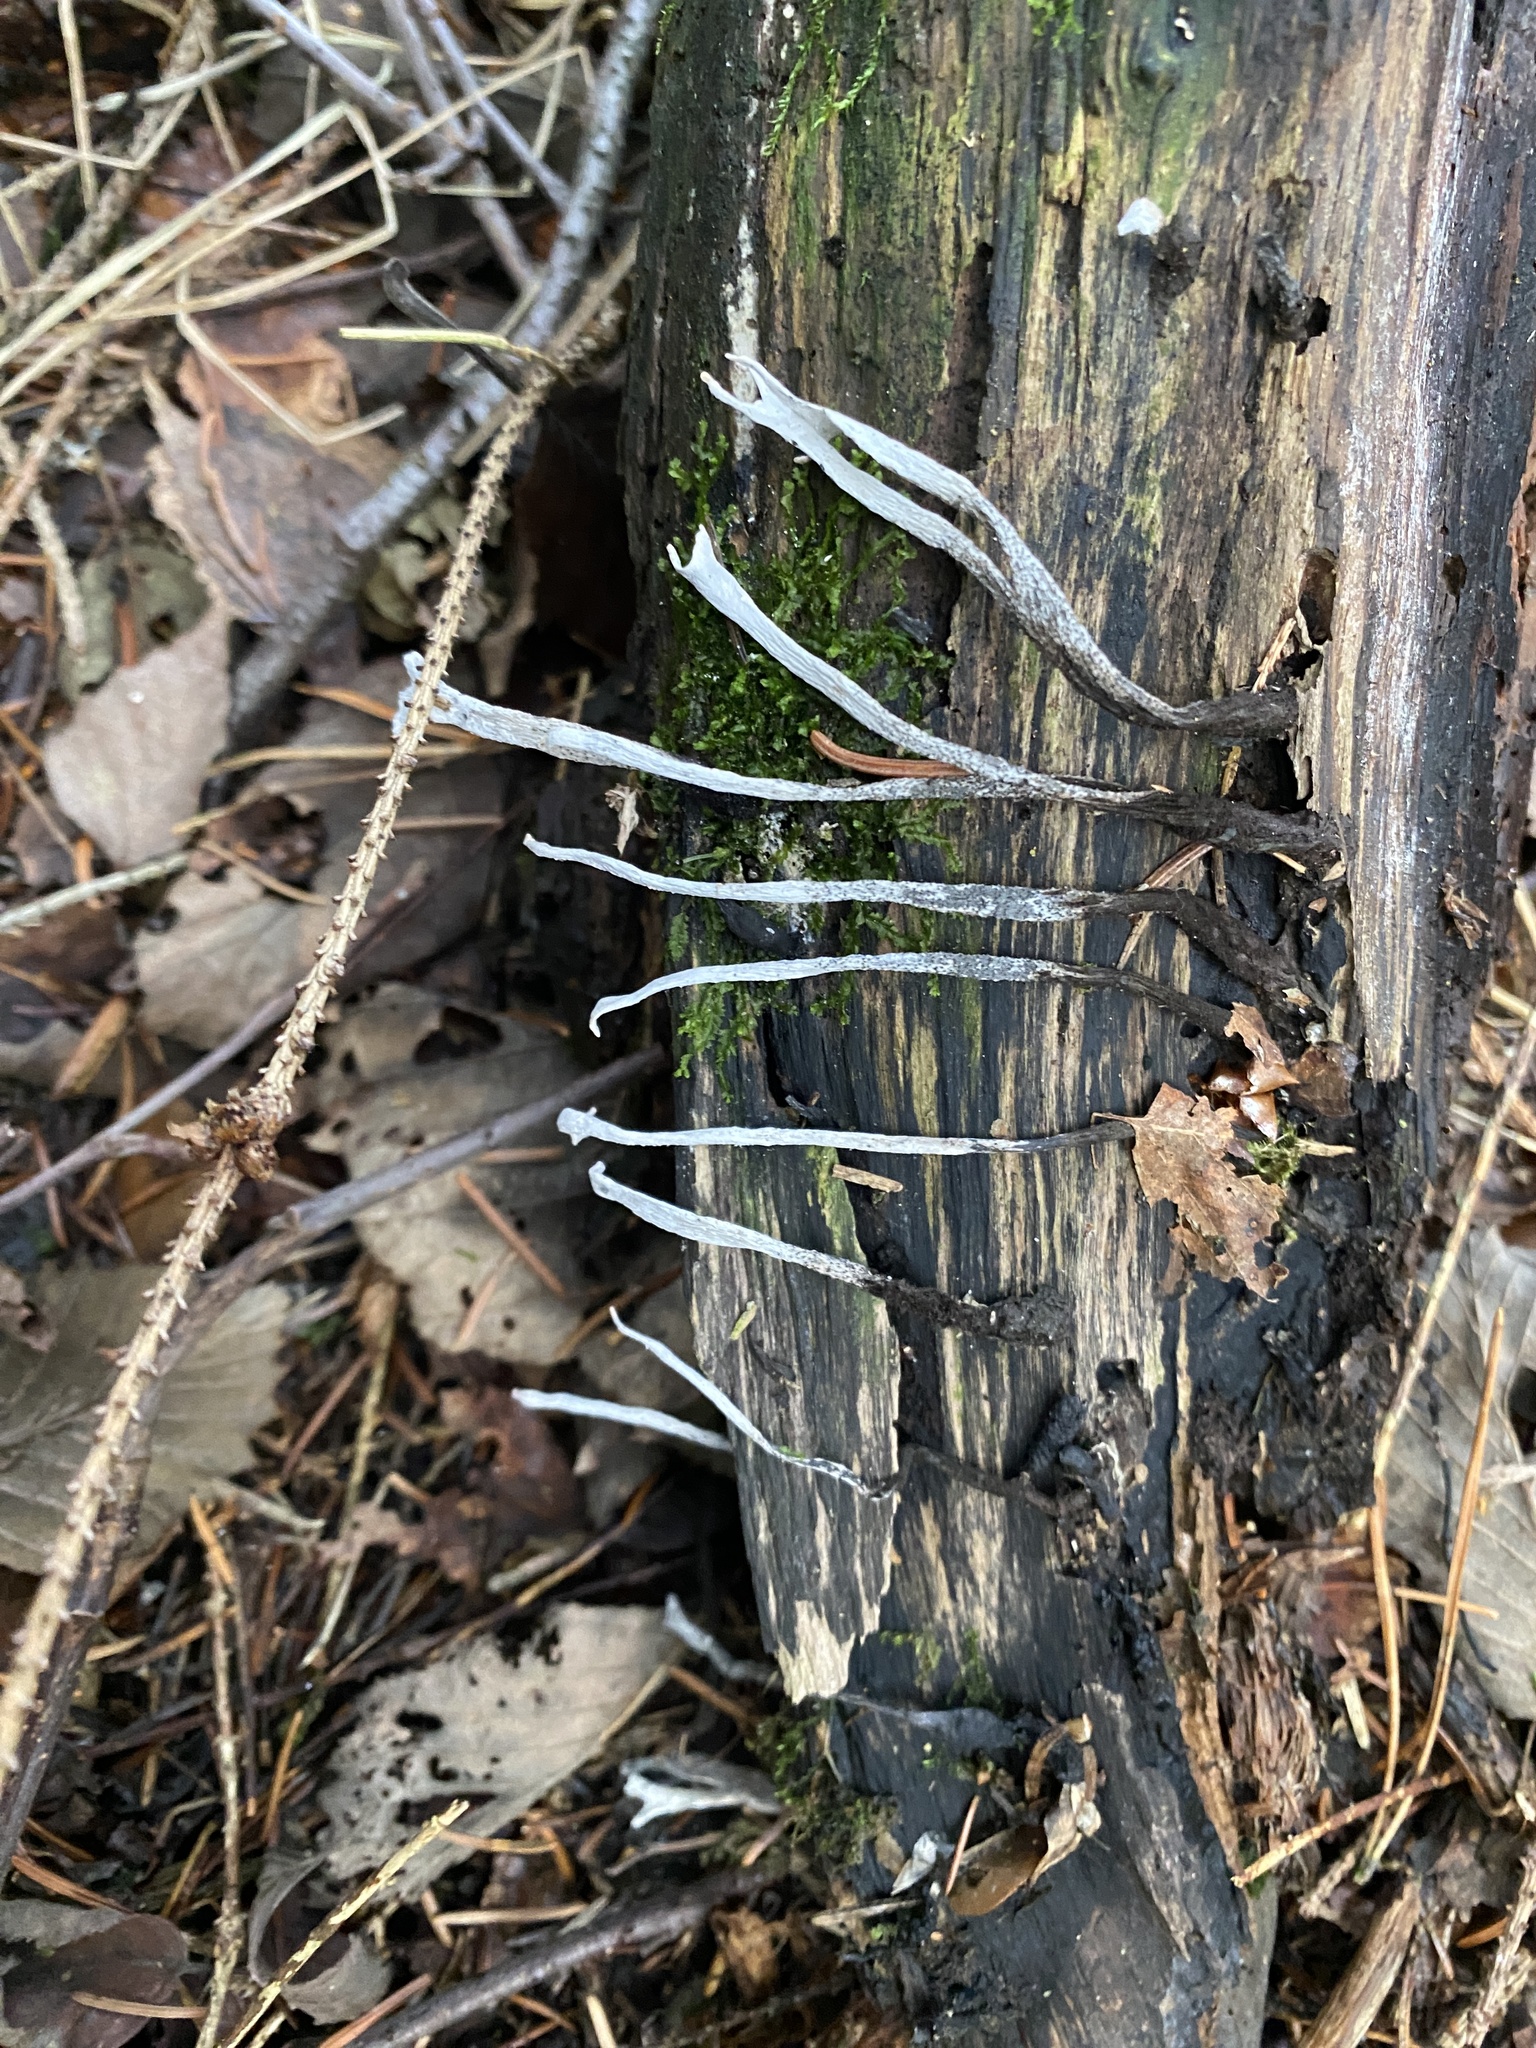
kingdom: Fungi
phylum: Ascomycota
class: Sordariomycetes
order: Xylariales
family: Xylariaceae
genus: Xylaria
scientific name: Xylaria hypoxylon
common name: Candle-snuff fungus
